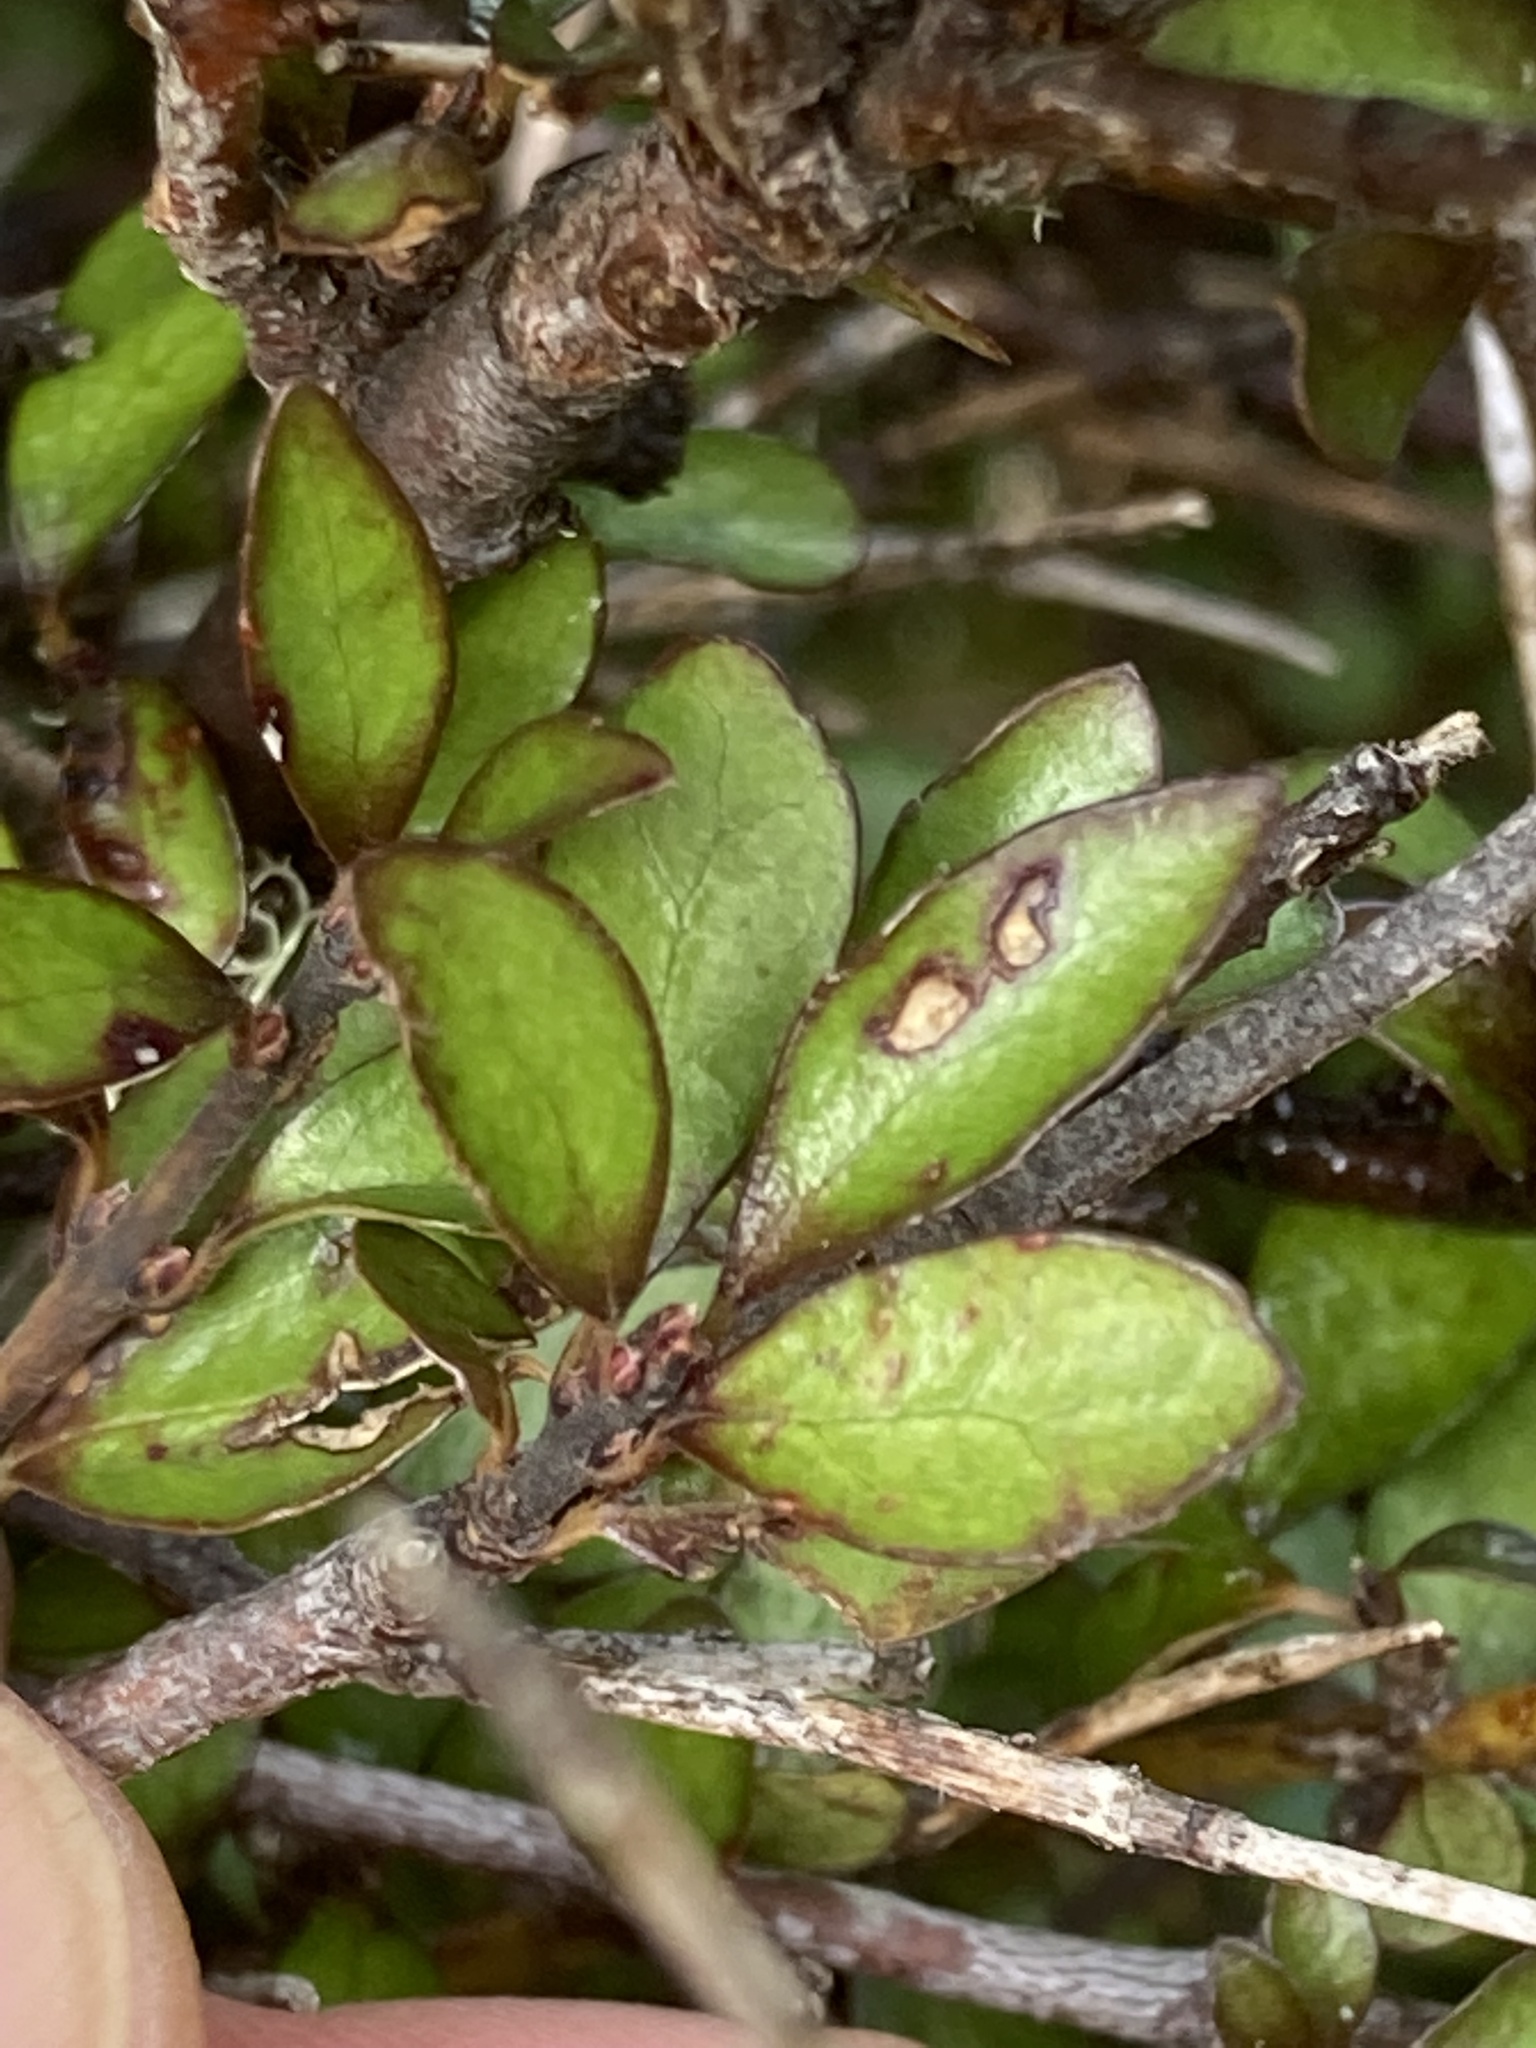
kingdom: Plantae
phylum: Tracheophyta
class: Magnoliopsida
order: Oxalidales
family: Elaeocarpaceae
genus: Aristotelia
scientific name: Aristotelia fruticosa
